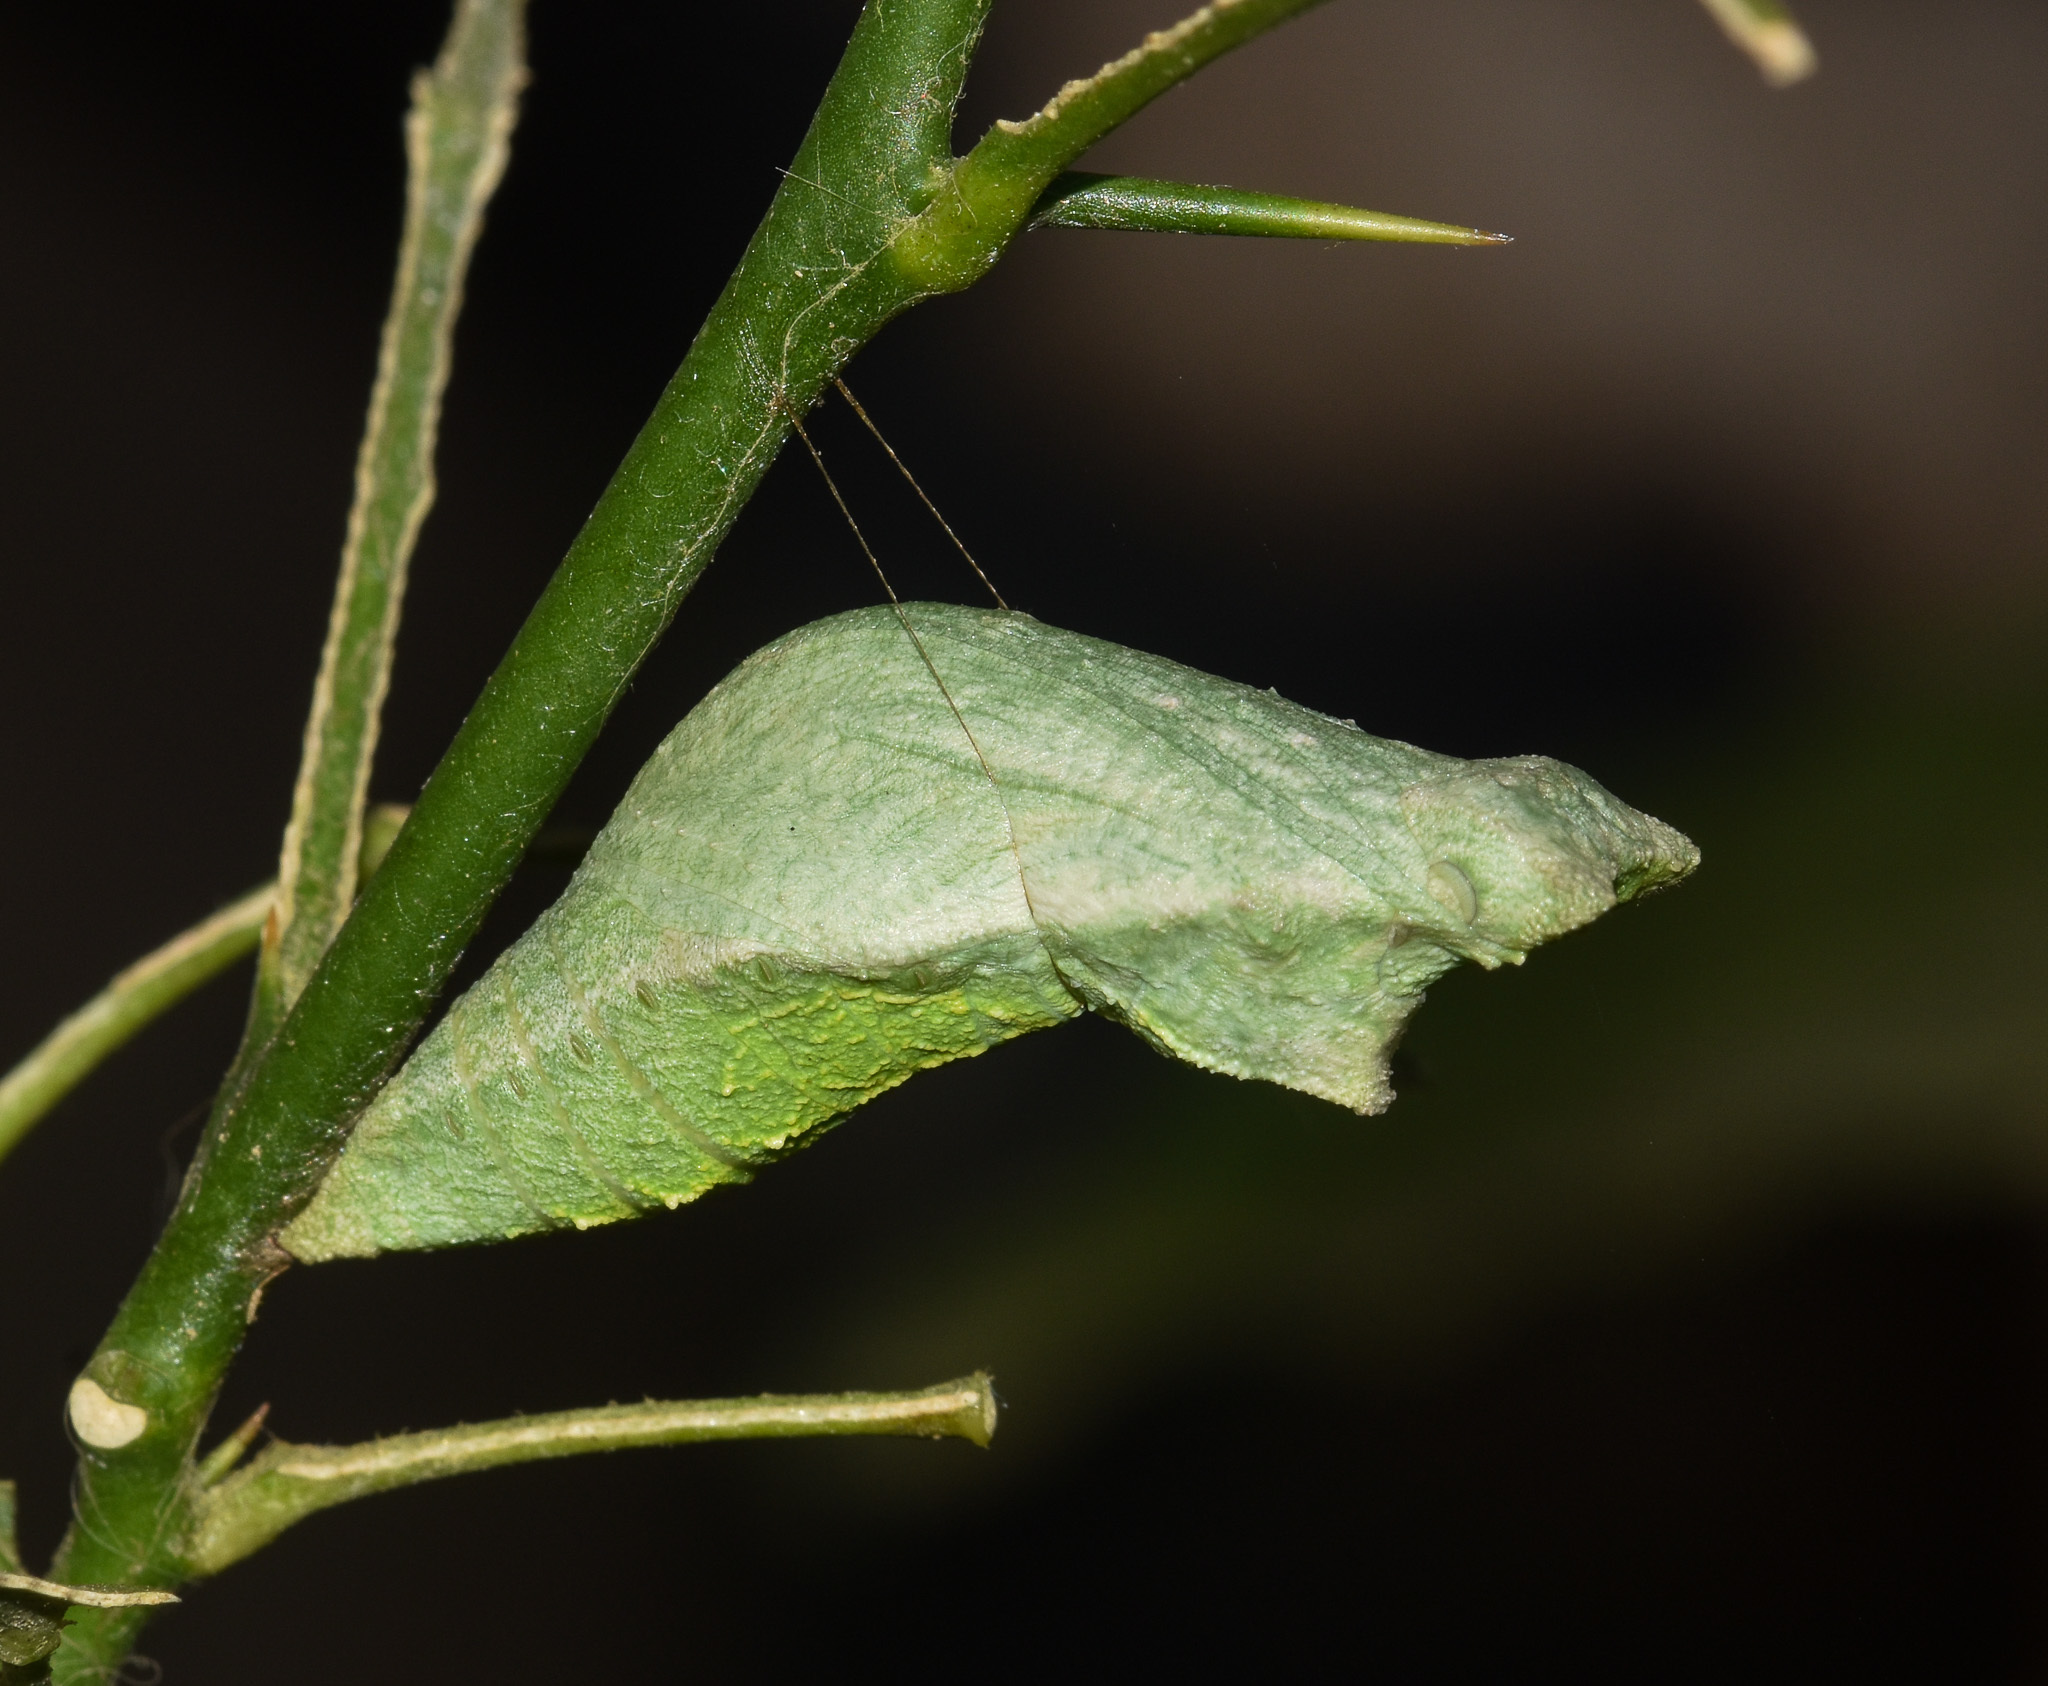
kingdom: Animalia
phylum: Arthropoda
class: Insecta
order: Lepidoptera
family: Papilionidae
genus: Papilio
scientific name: Papilio demoleus
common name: Lime butterfly
